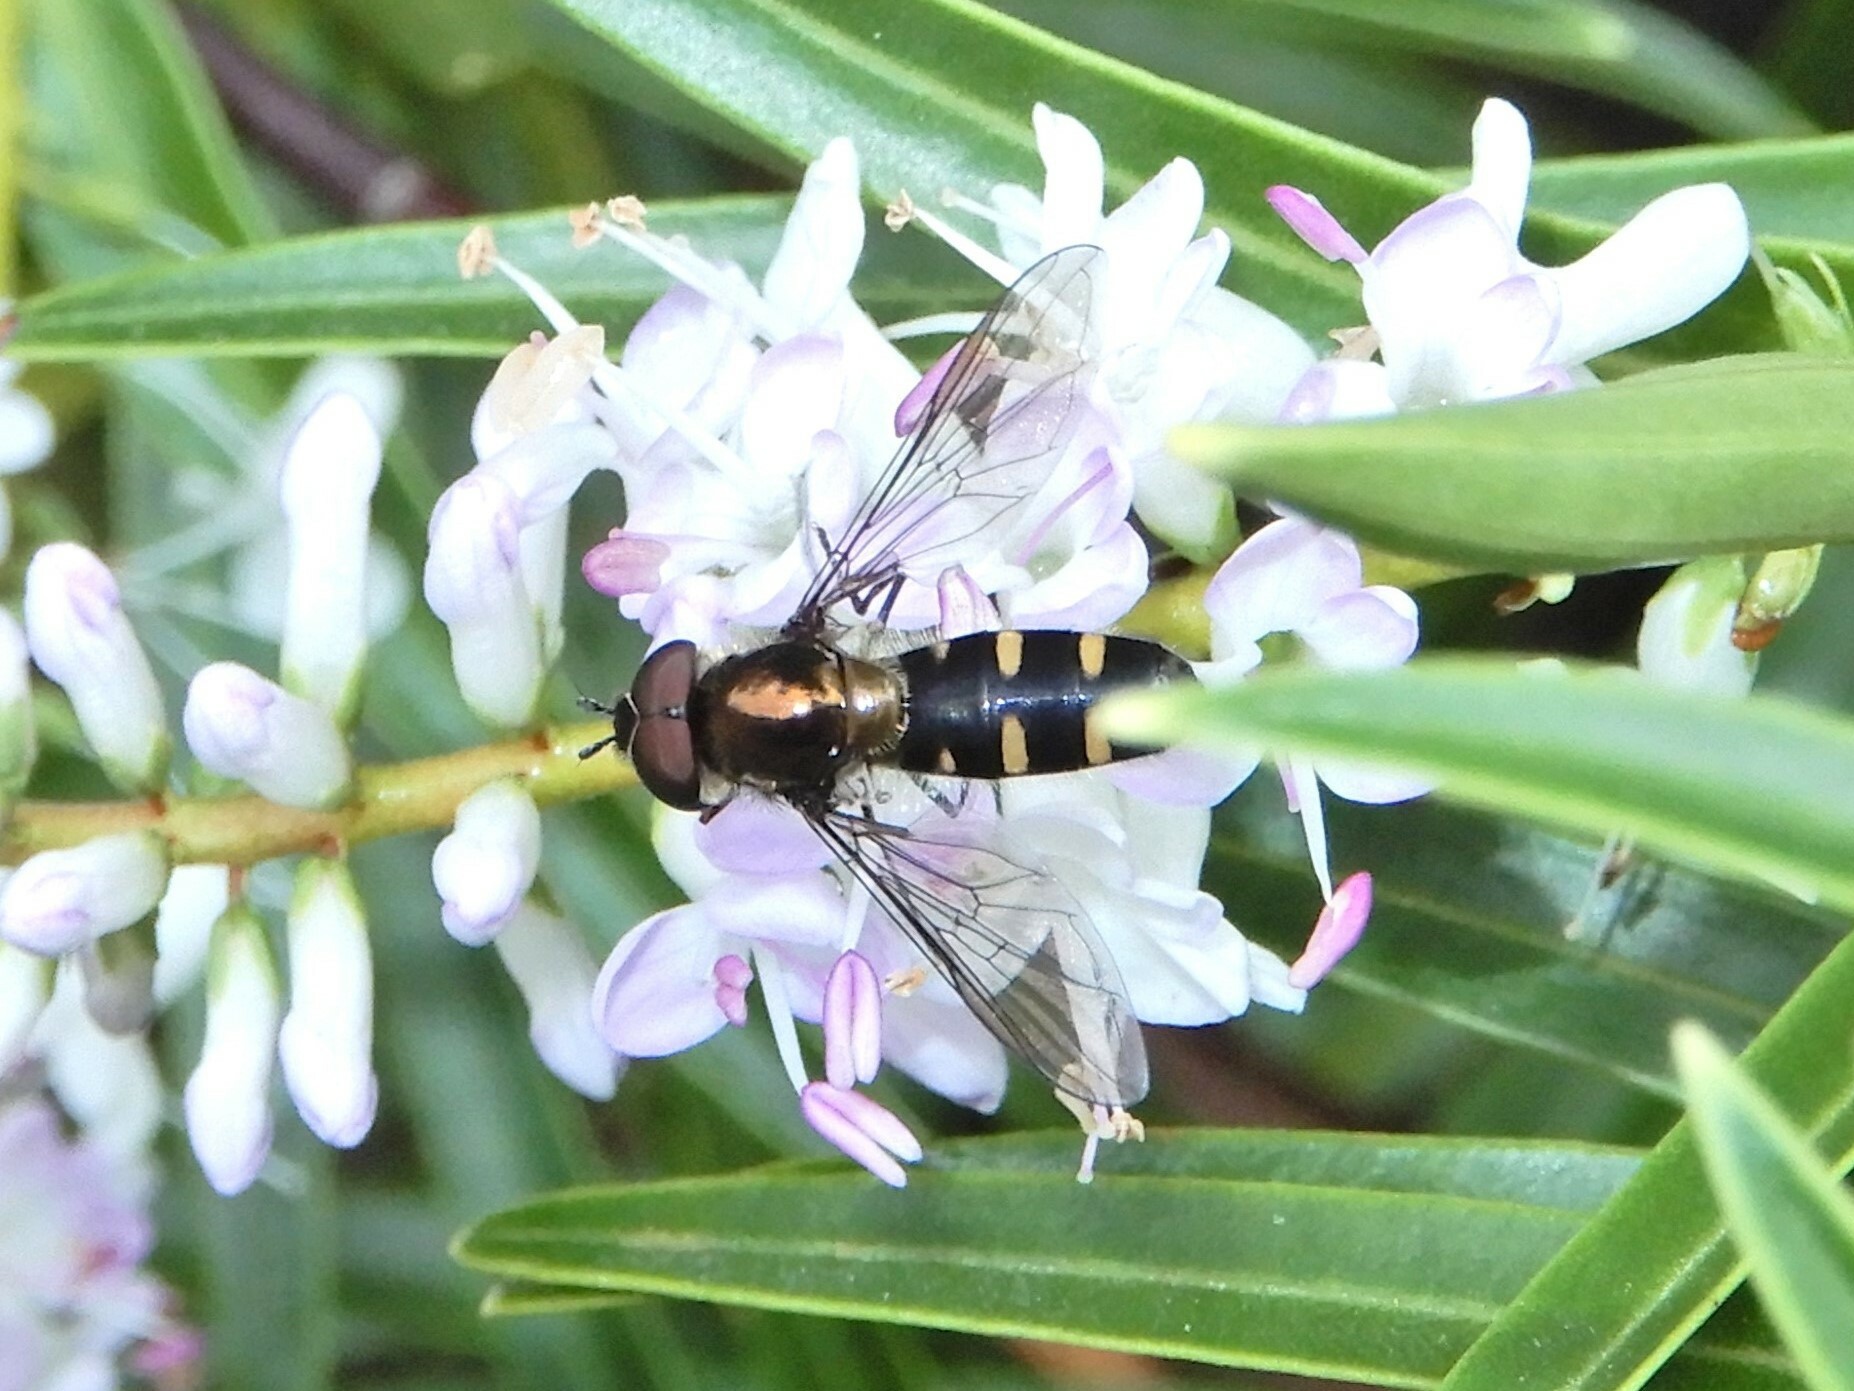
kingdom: Animalia
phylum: Arthropoda
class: Insecta
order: Diptera
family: Syrphidae
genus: Melangyna
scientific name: Melangyna novaezelandiae
